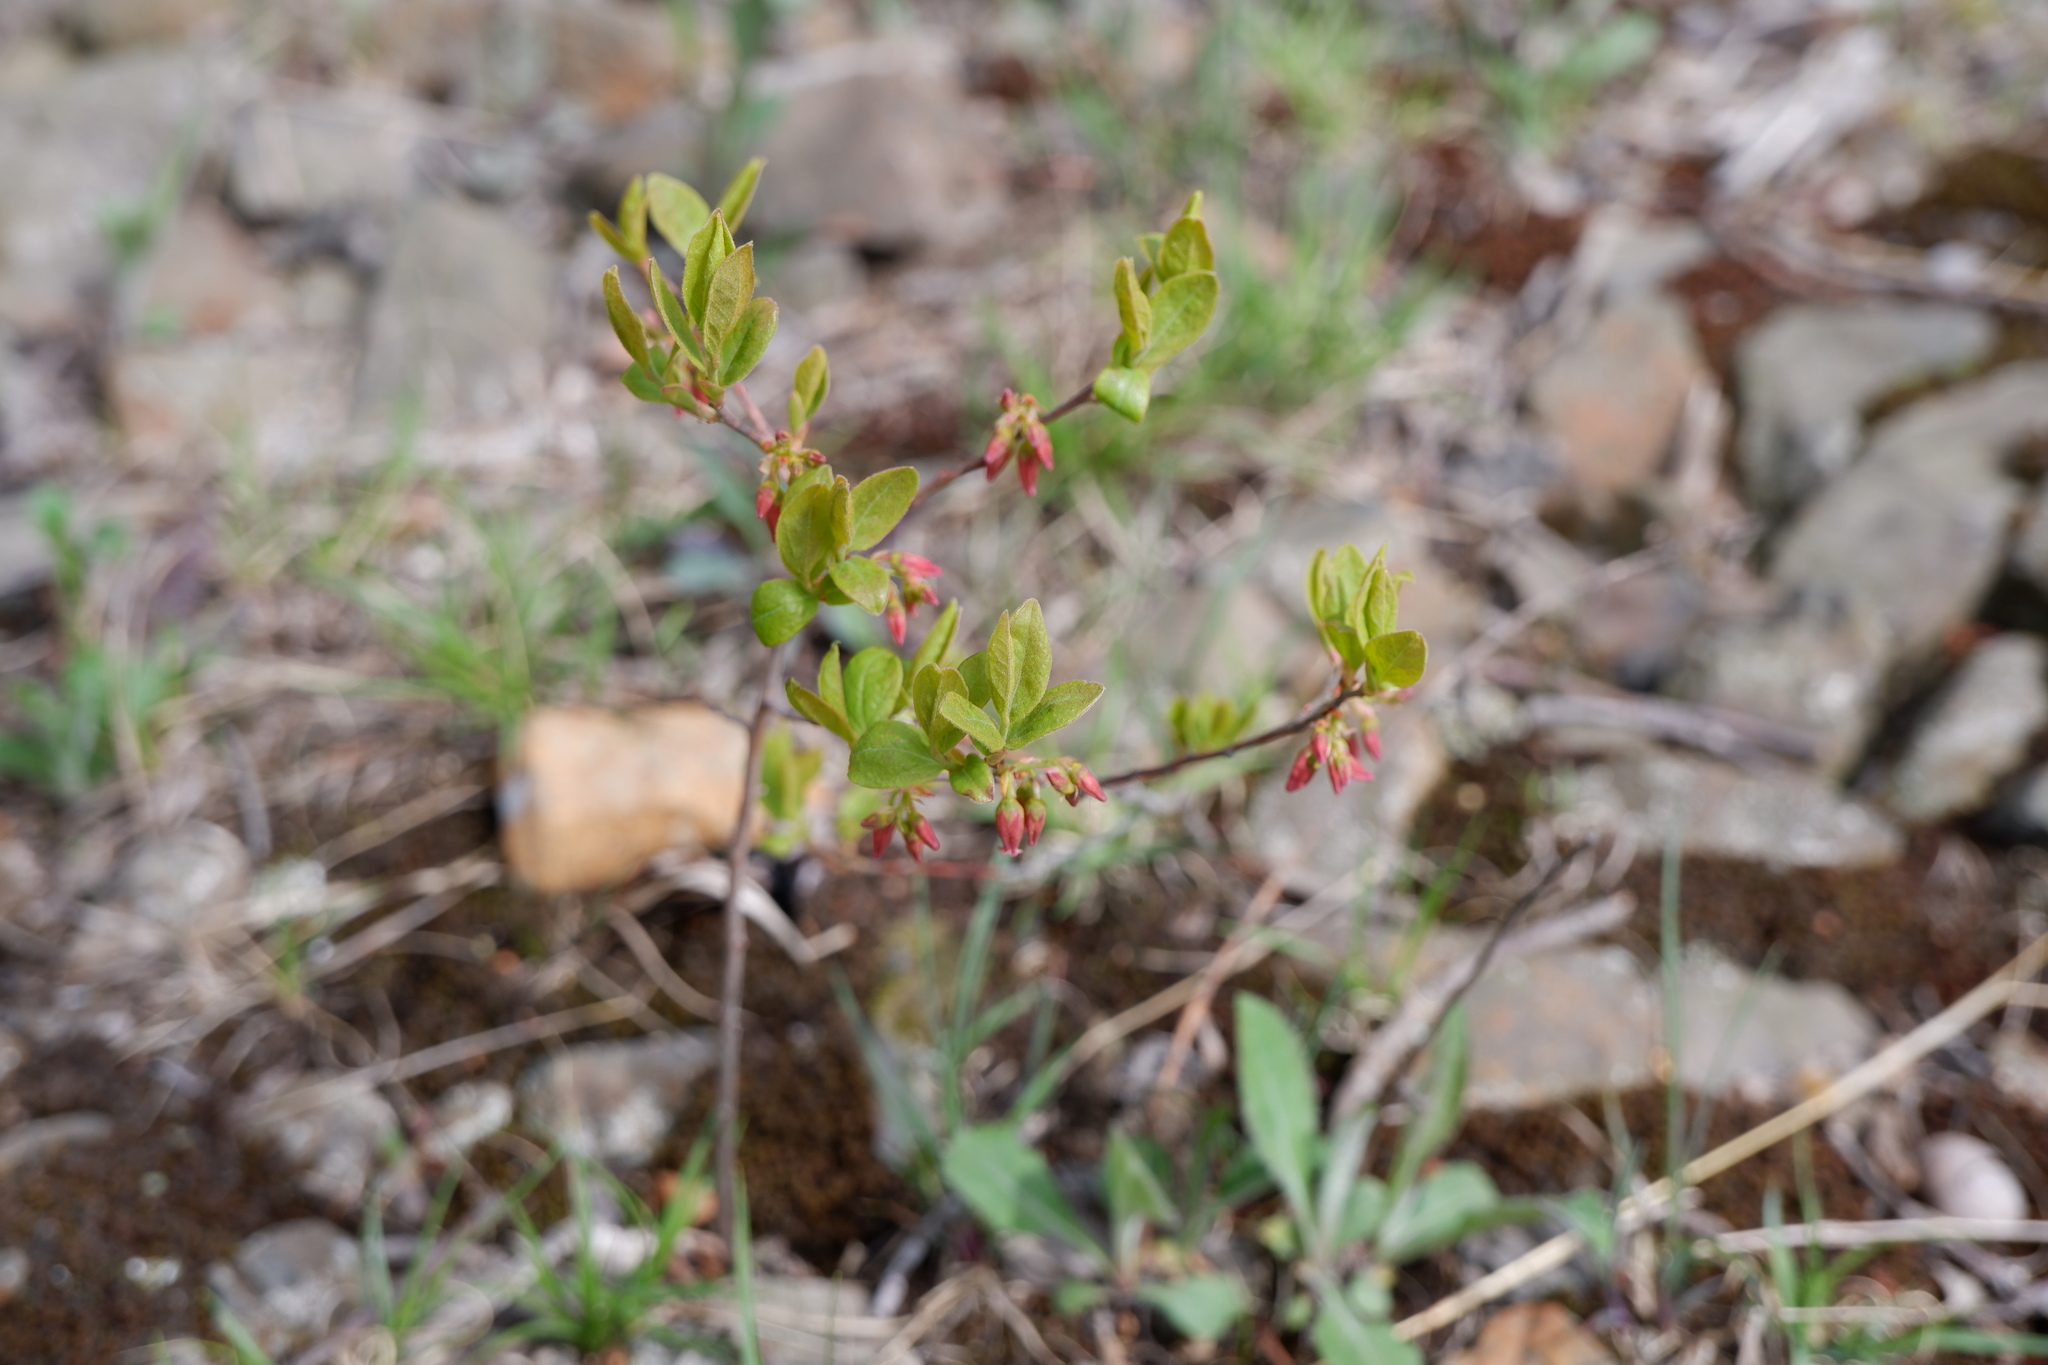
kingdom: Plantae
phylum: Tracheophyta
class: Magnoliopsida
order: Ericales
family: Ericaceae
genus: Gaylussacia
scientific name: Gaylussacia baccata
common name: Black huckleberry
